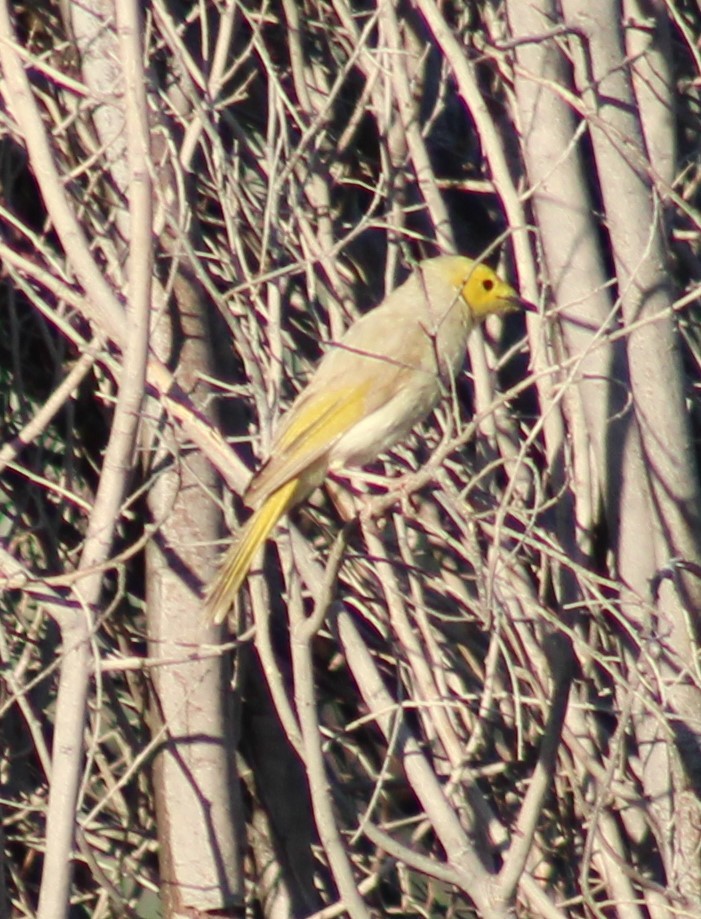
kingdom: Animalia
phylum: Chordata
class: Aves
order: Passeriformes
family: Meliphagidae
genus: Ptilotula
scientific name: Ptilotula penicillata
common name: White-plumed honeyeater
